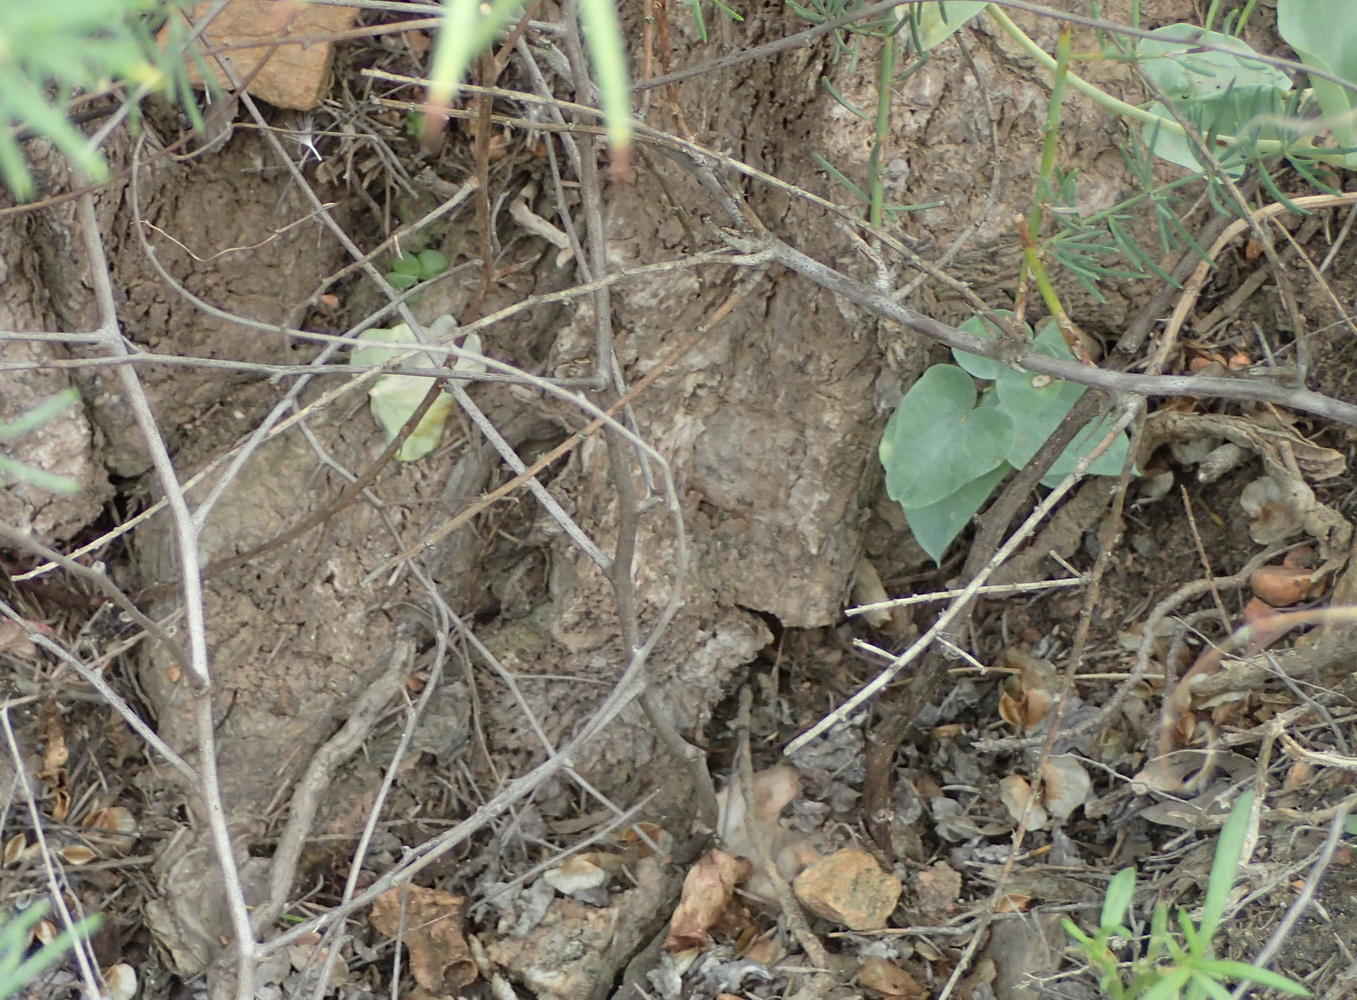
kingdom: Plantae
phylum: Tracheophyta
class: Liliopsida
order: Dioscoreales
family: Dioscoreaceae
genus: Dioscorea
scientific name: Dioscorea hemicrypta
